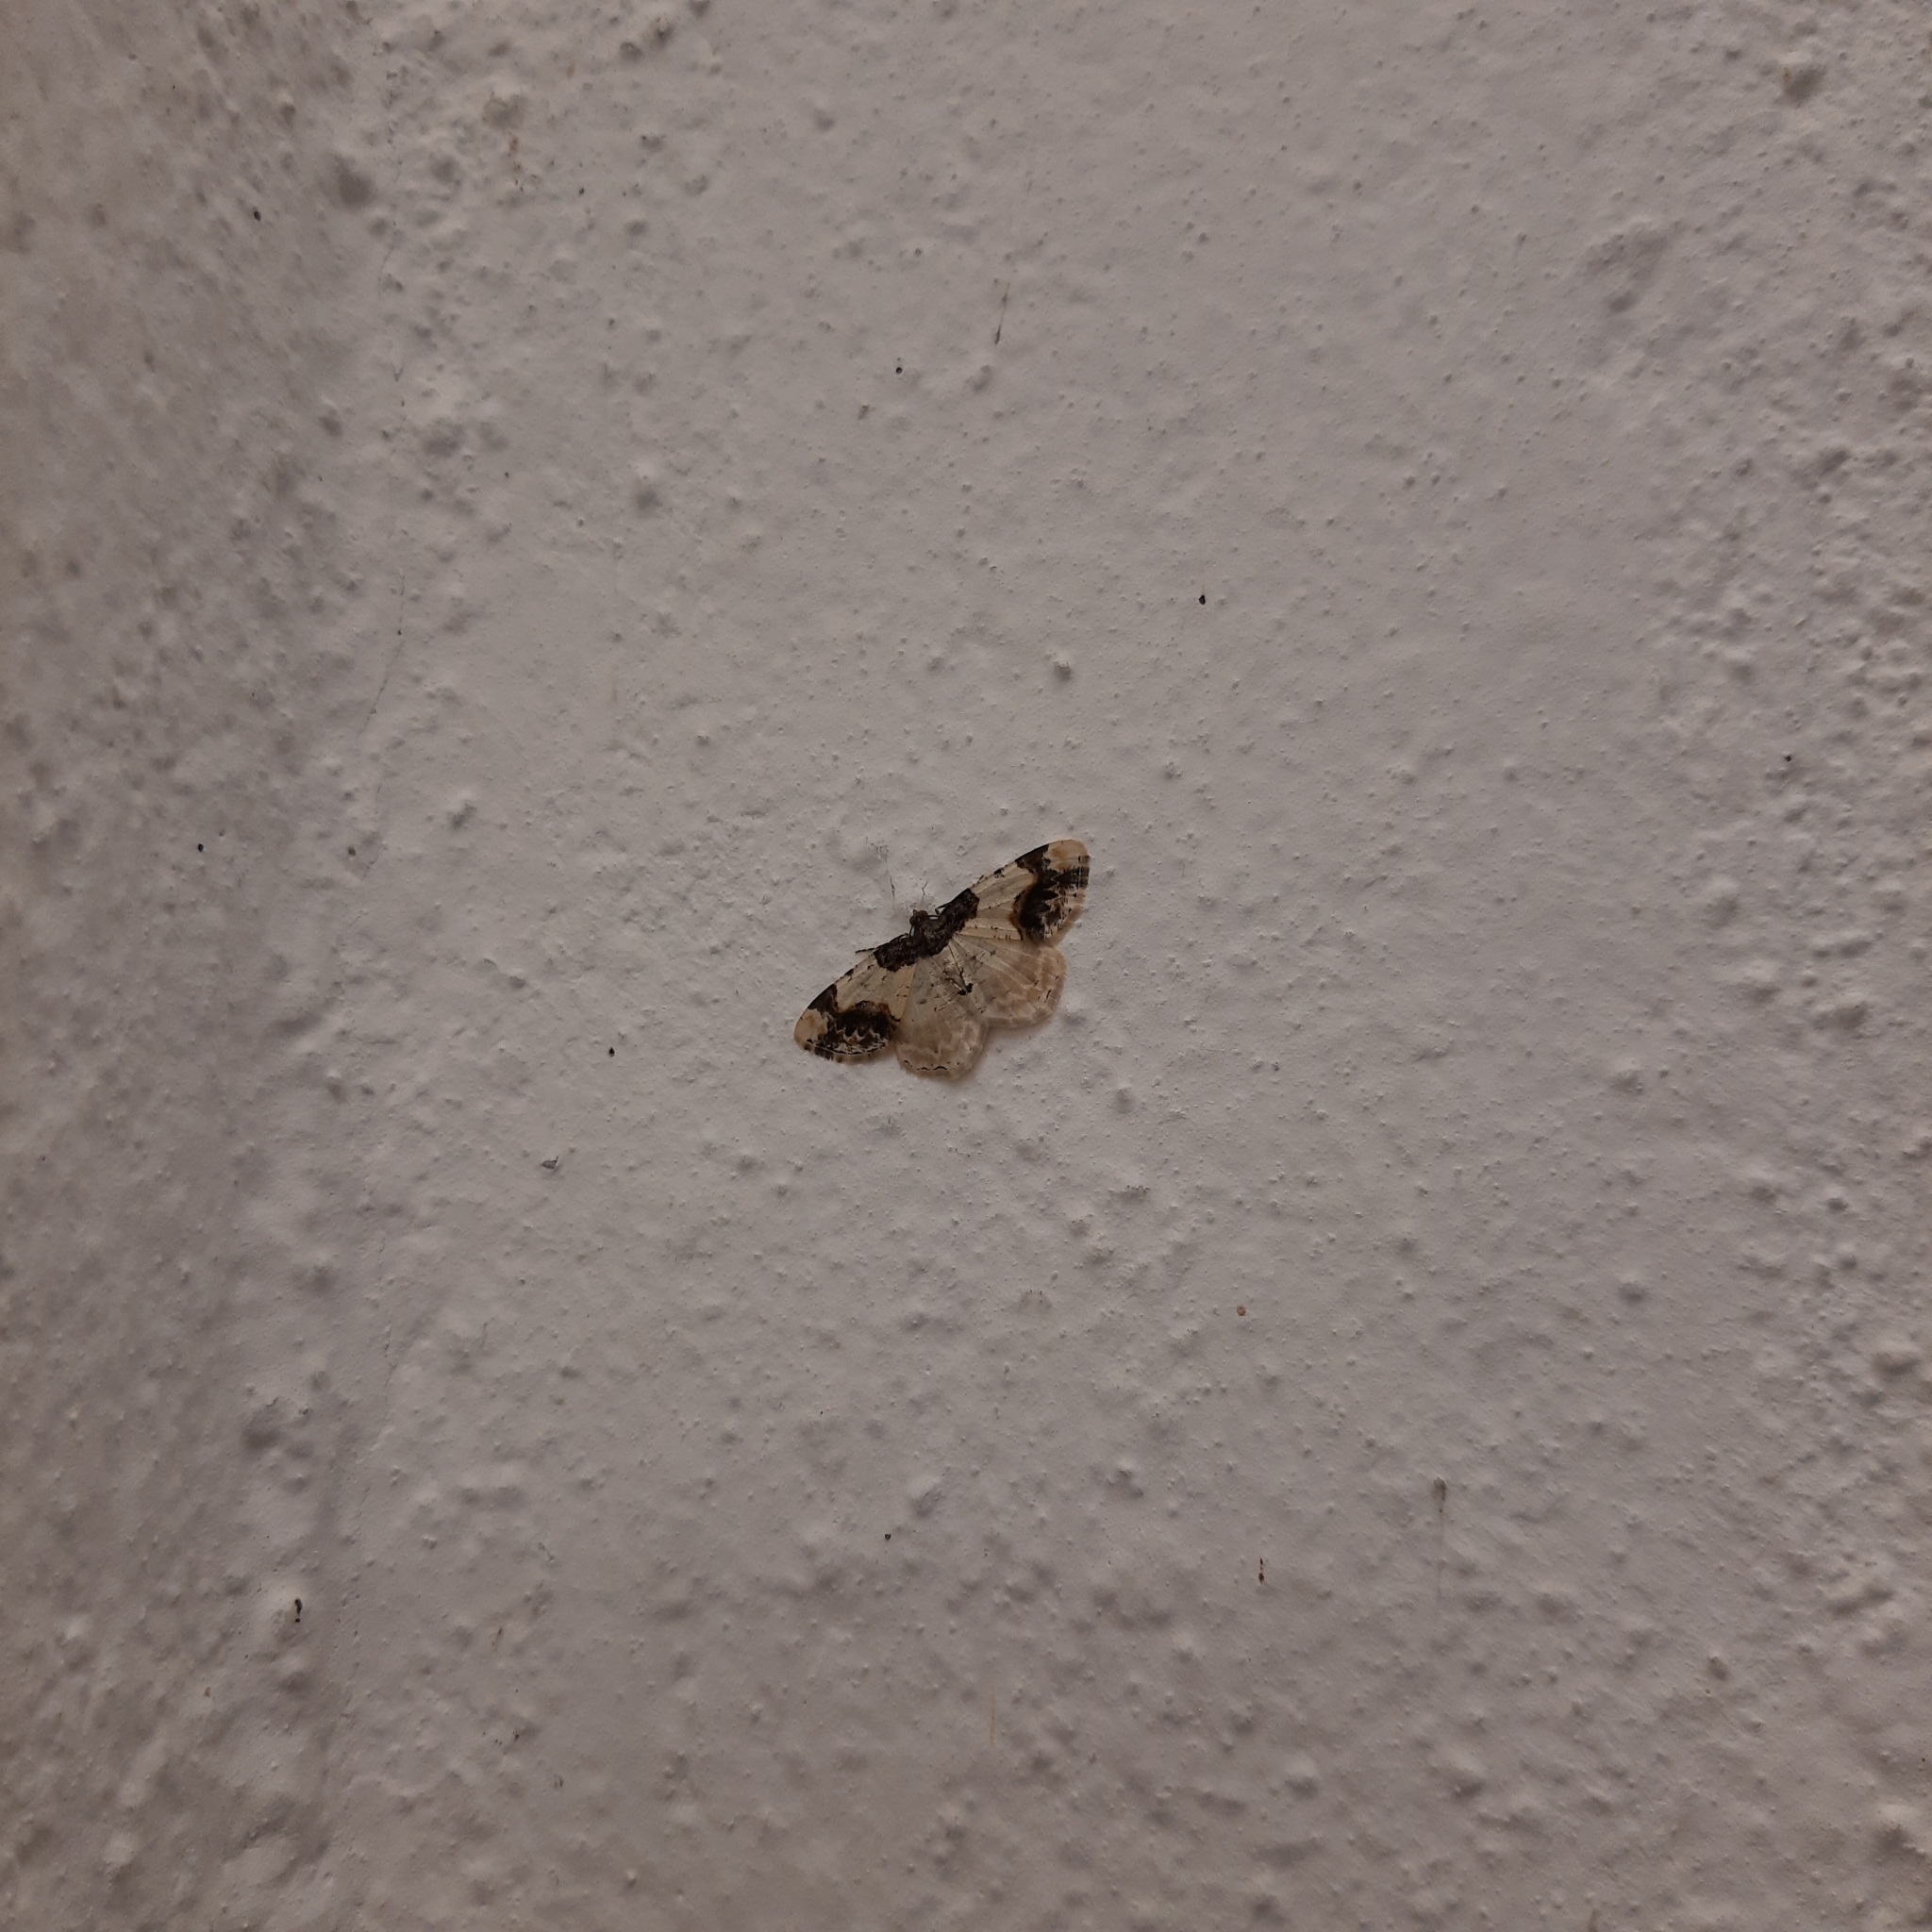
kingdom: Animalia
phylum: Arthropoda
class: Insecta
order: Lepidoptera
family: Geometridae
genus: Ligdia
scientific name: Ligdia adustata
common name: Scorched carpet
